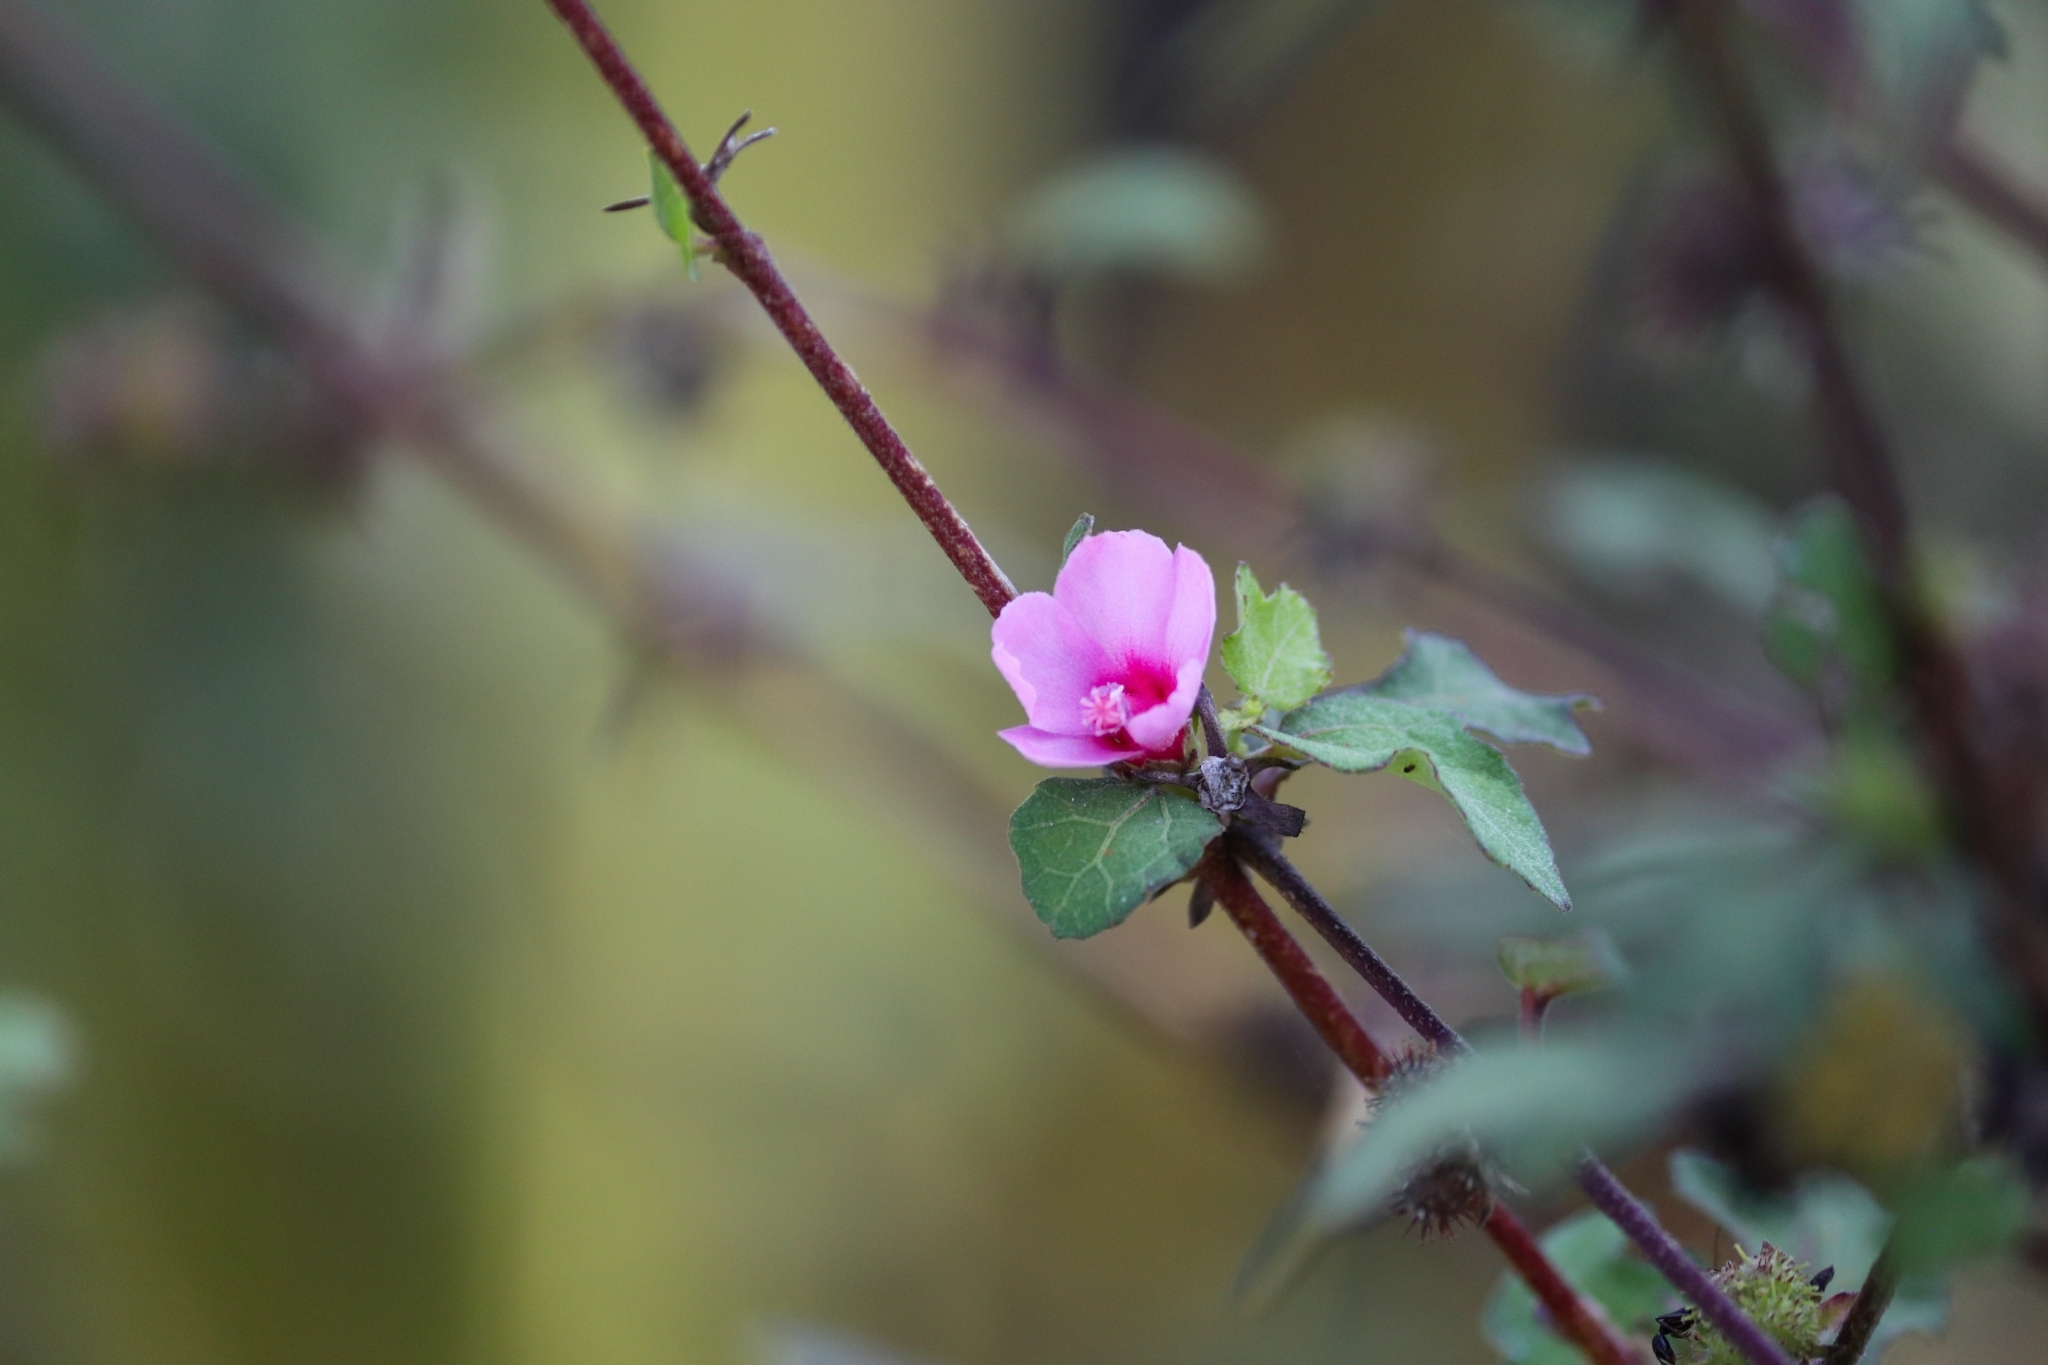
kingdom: Plantae
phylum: Tracheophyta
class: Magnoliopsida
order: Malvales
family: Malvaceae
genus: Urena
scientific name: Urena procumbens
